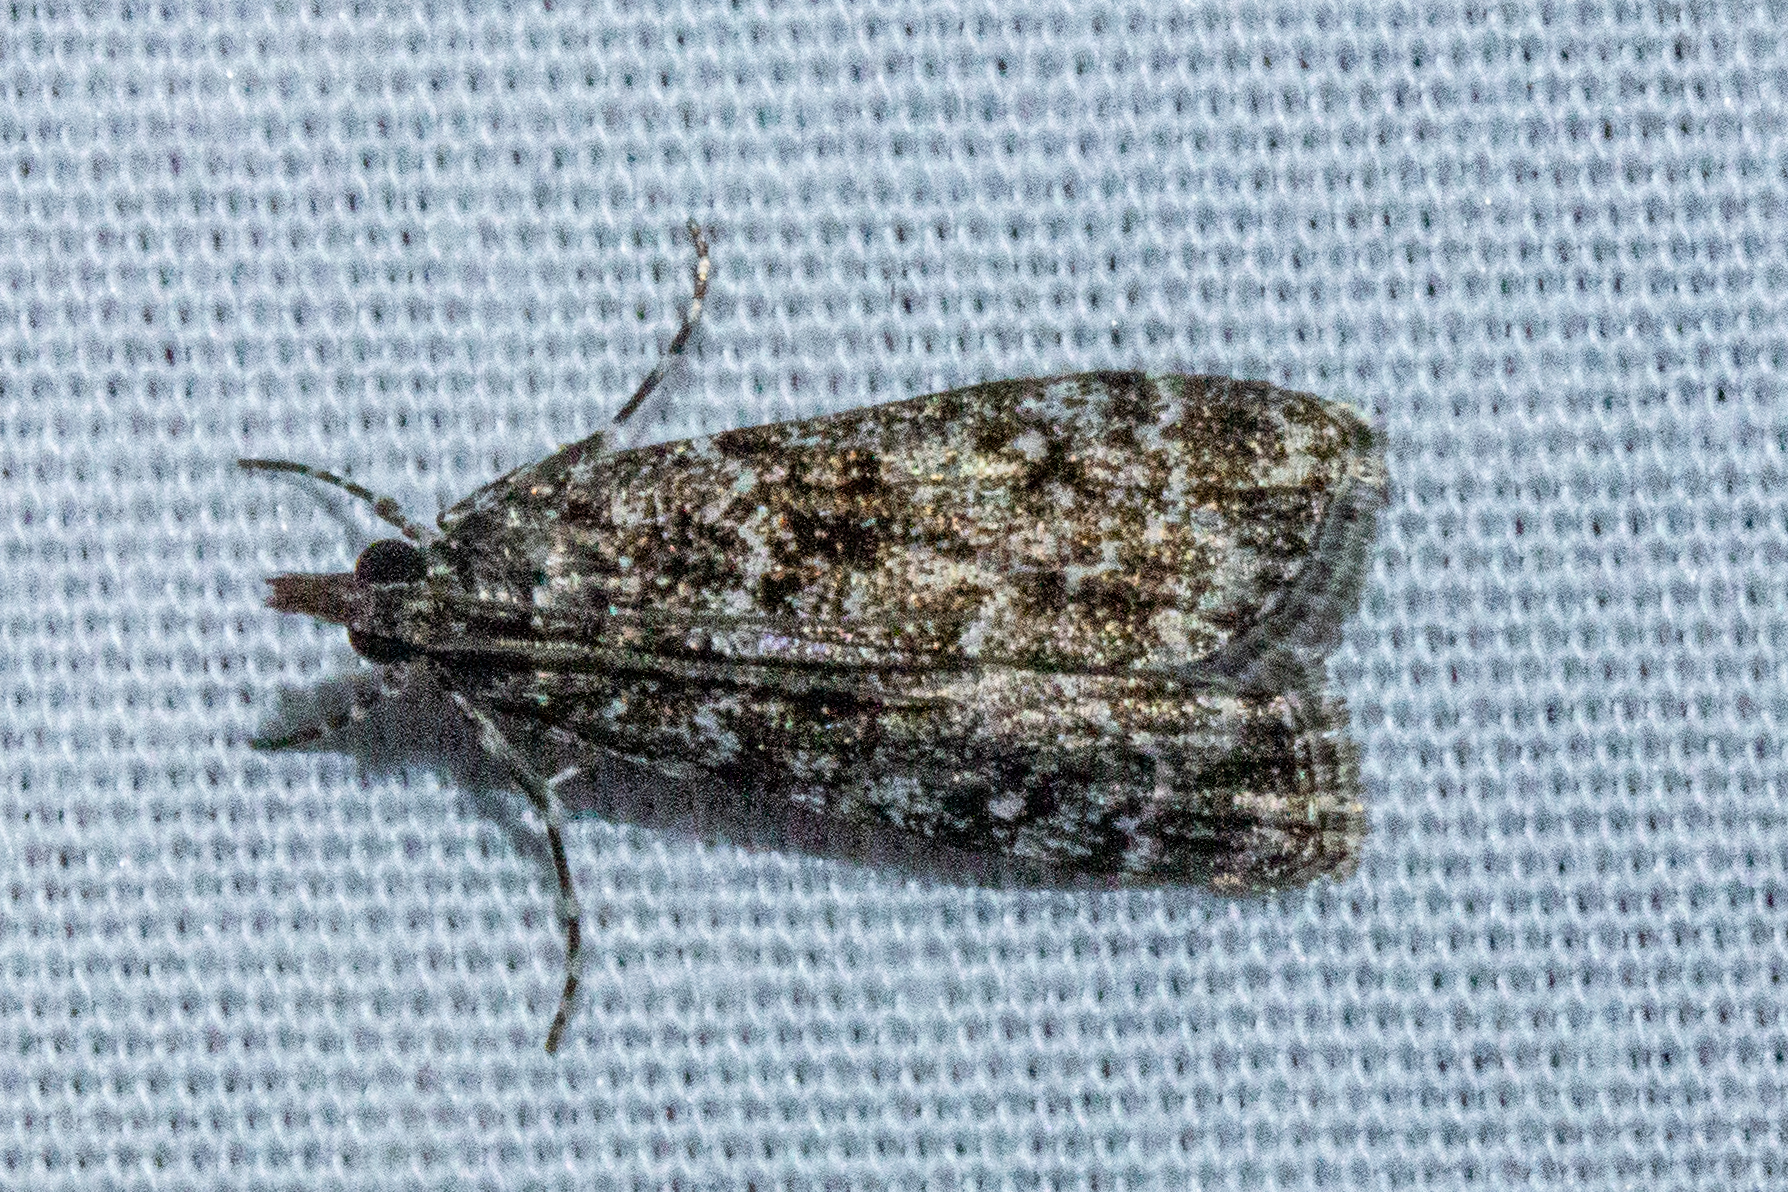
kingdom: Animalia
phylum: Arthropoda
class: Insecta
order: Lepidoptera
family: Crambidae
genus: Eudonia
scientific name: Eudonia philerga
